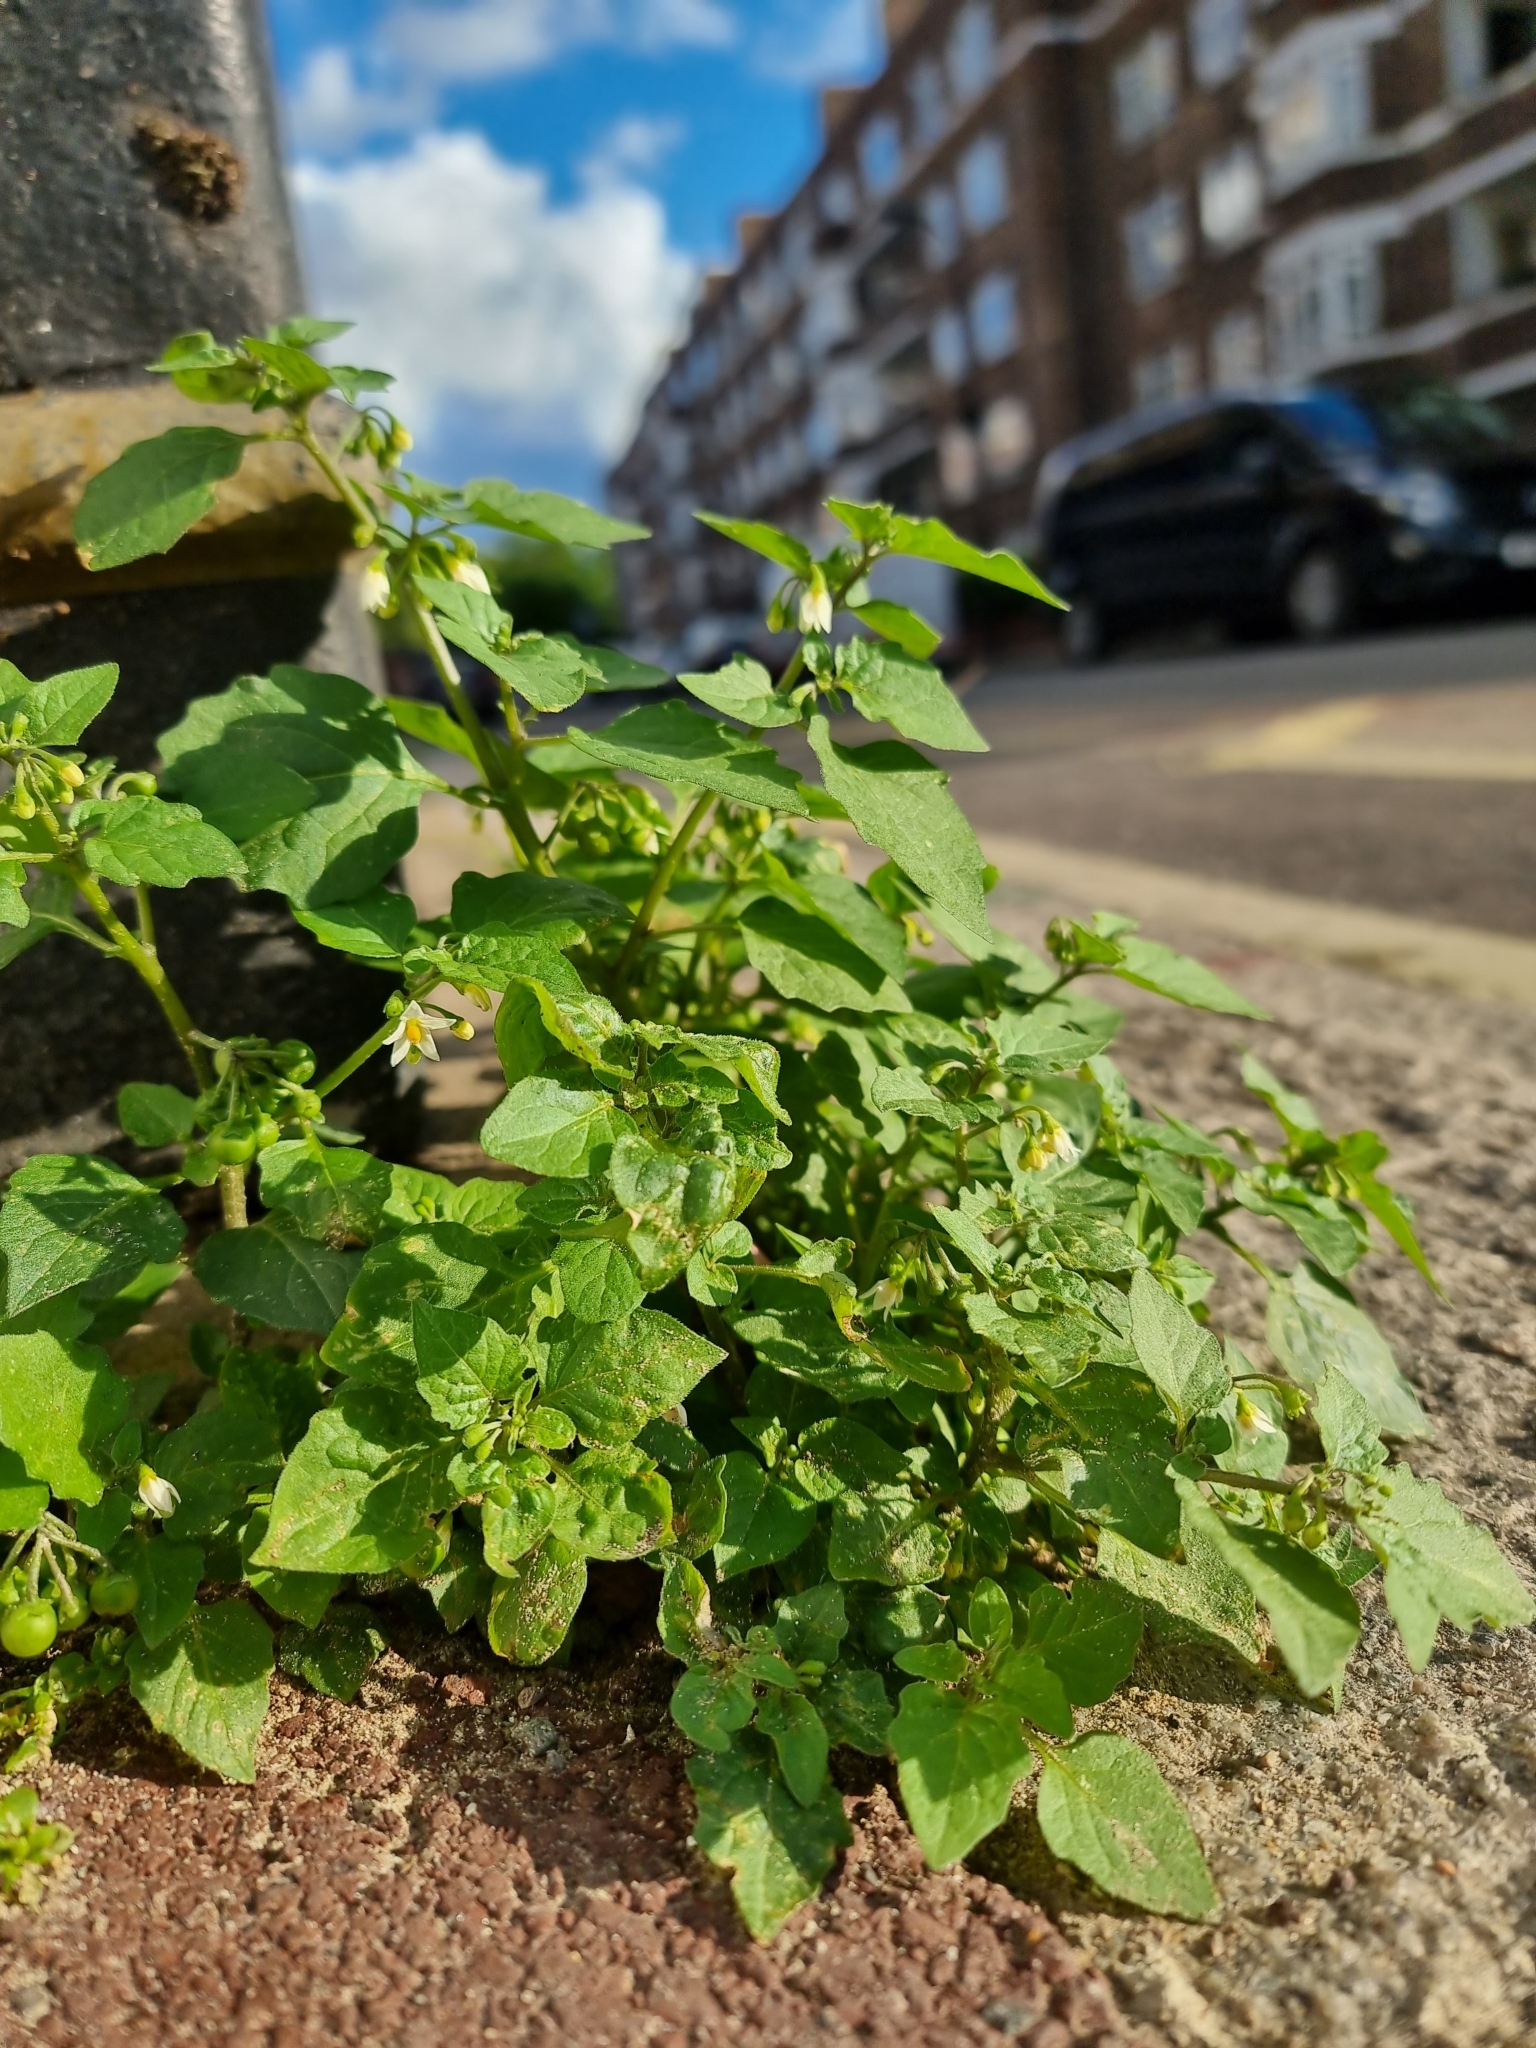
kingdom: Plantae
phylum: Tracheophyta
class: Magnoliopsida
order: Solanales
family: Solanaceae
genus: Solanum
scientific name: Solanum nigrum
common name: Black nightshade
